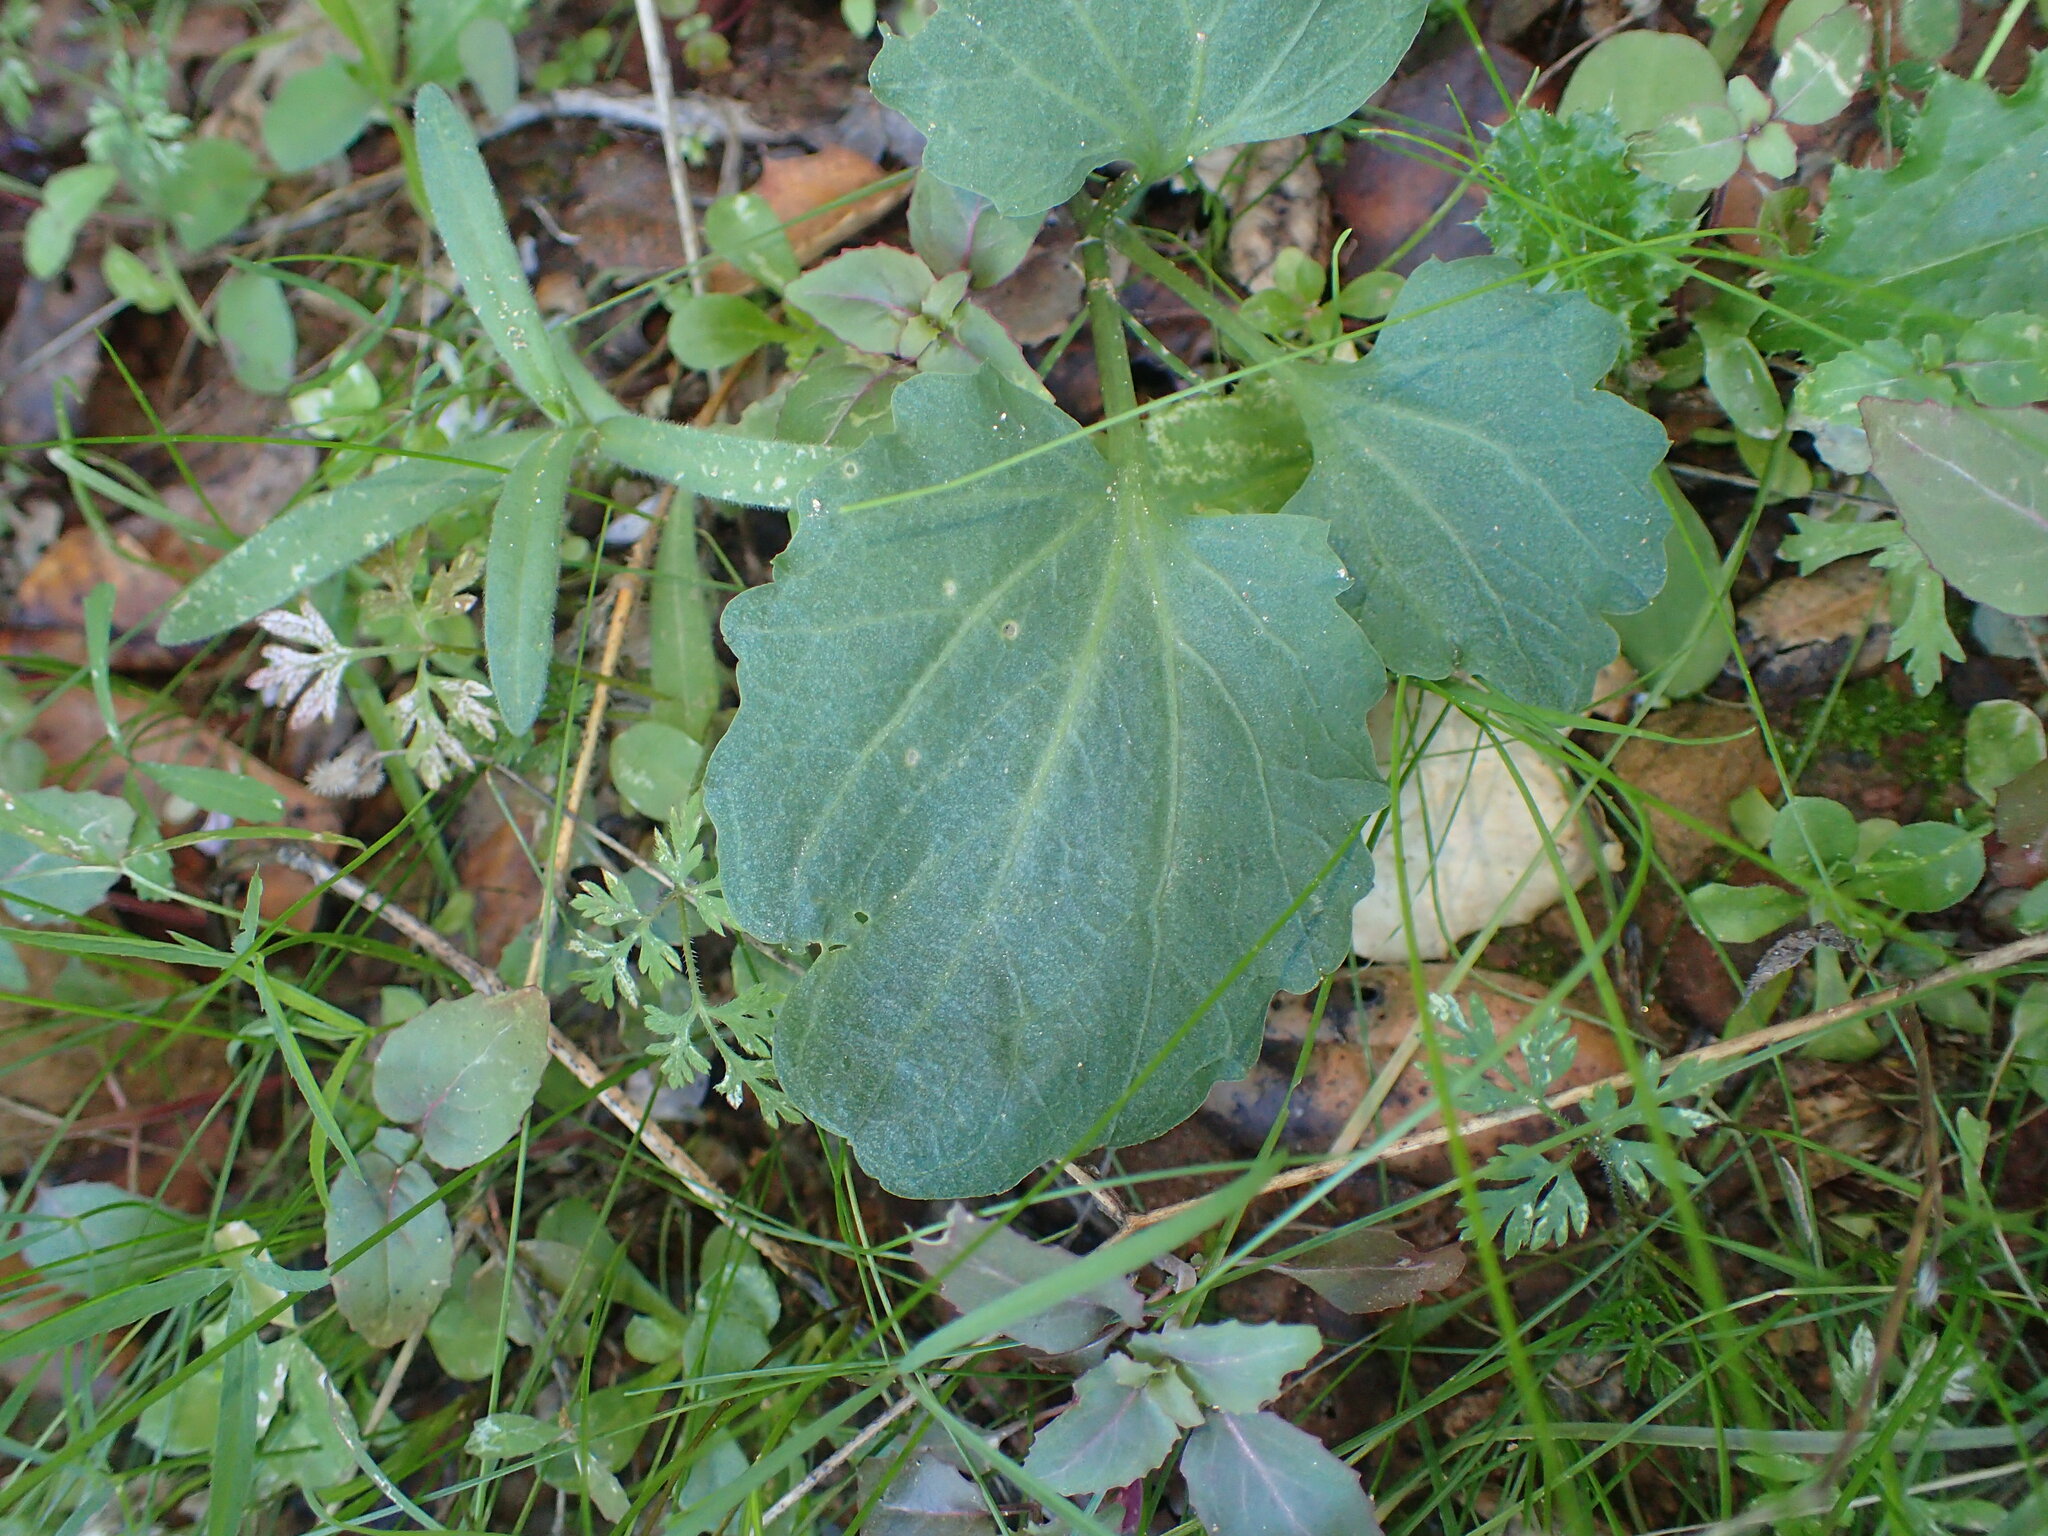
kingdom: Plantae
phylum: Tracheophyta
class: Magnoliopsida
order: Brassicales
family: Brassicaceae
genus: Cardamine
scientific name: Cardamine californica
